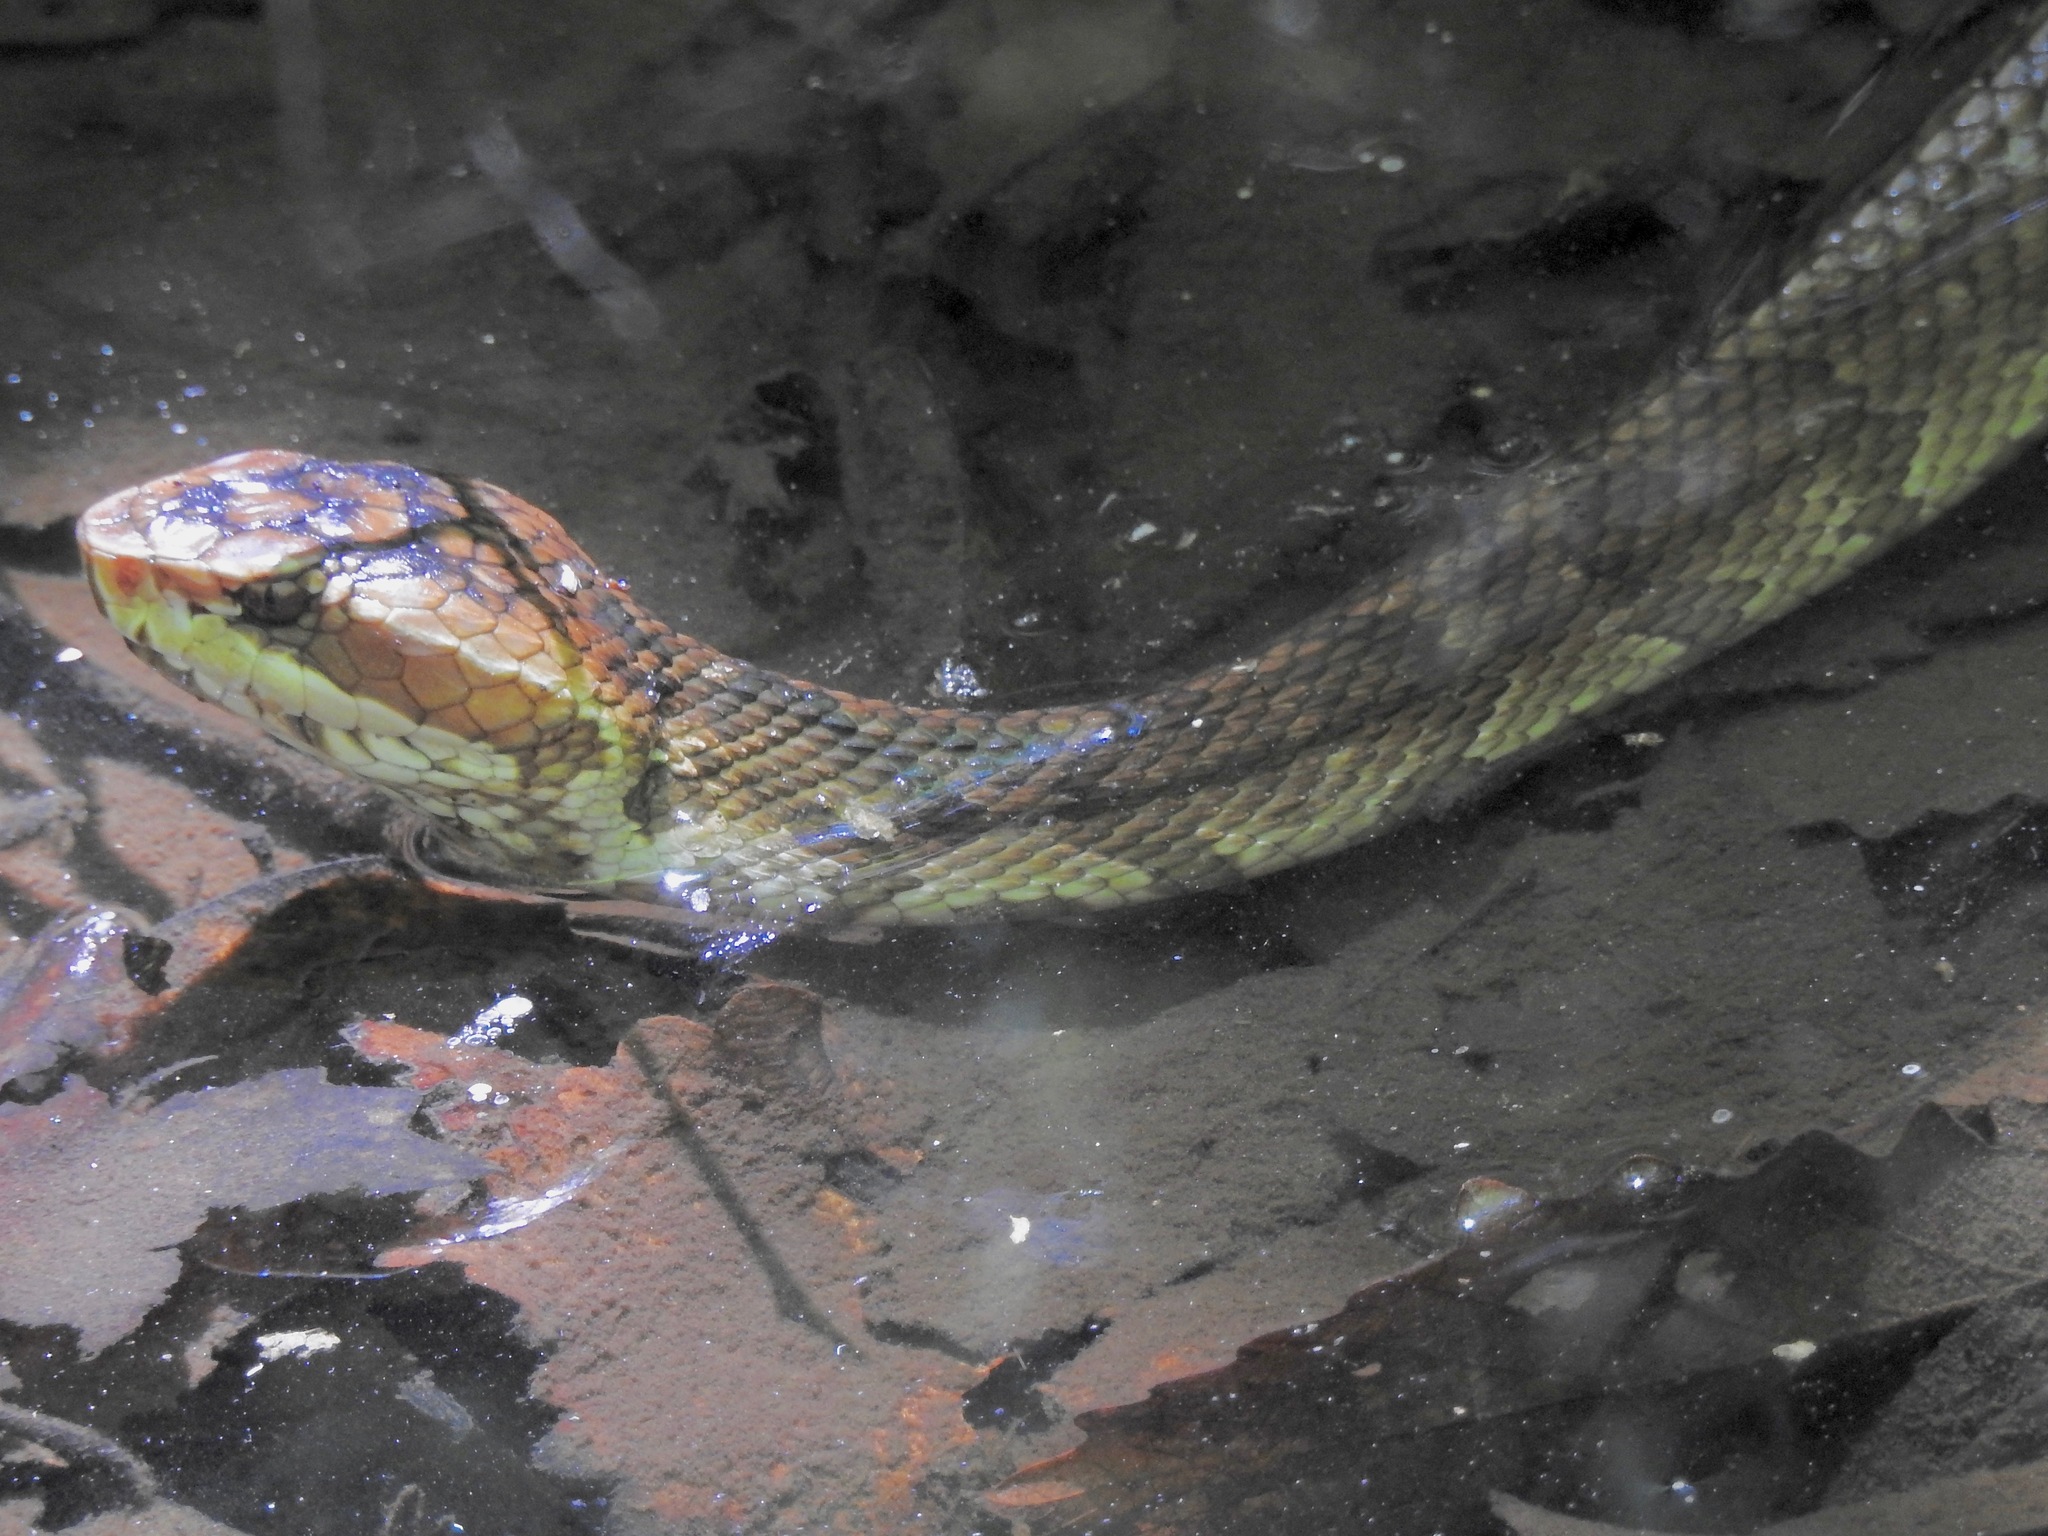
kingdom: Animalia
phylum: Chordata
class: Squamata
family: Viperidae
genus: Agkistrodon
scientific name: Agkistrodon conanti
